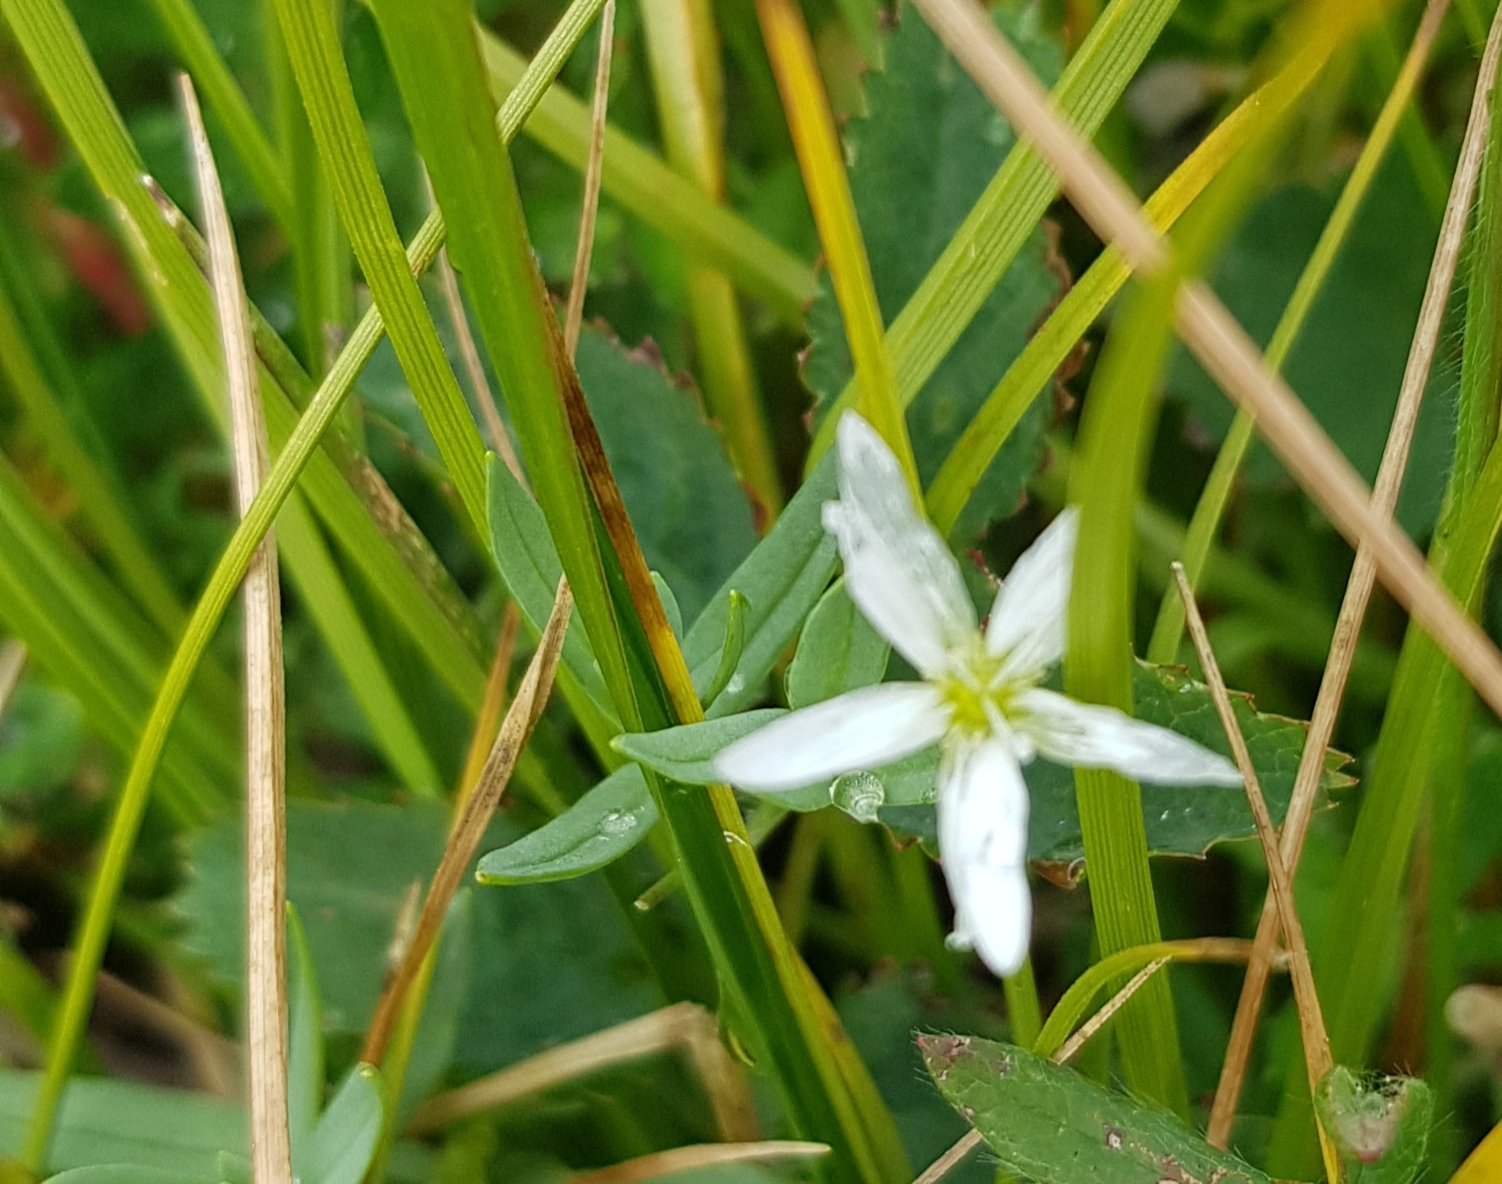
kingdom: Plantae
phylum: Tracheophyta
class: Magnoliopsida
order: Caryophyllales
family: Caryophyllaceae
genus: Moehringia
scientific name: Moehringia lateriflora
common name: Blunt-leaved sandwort
